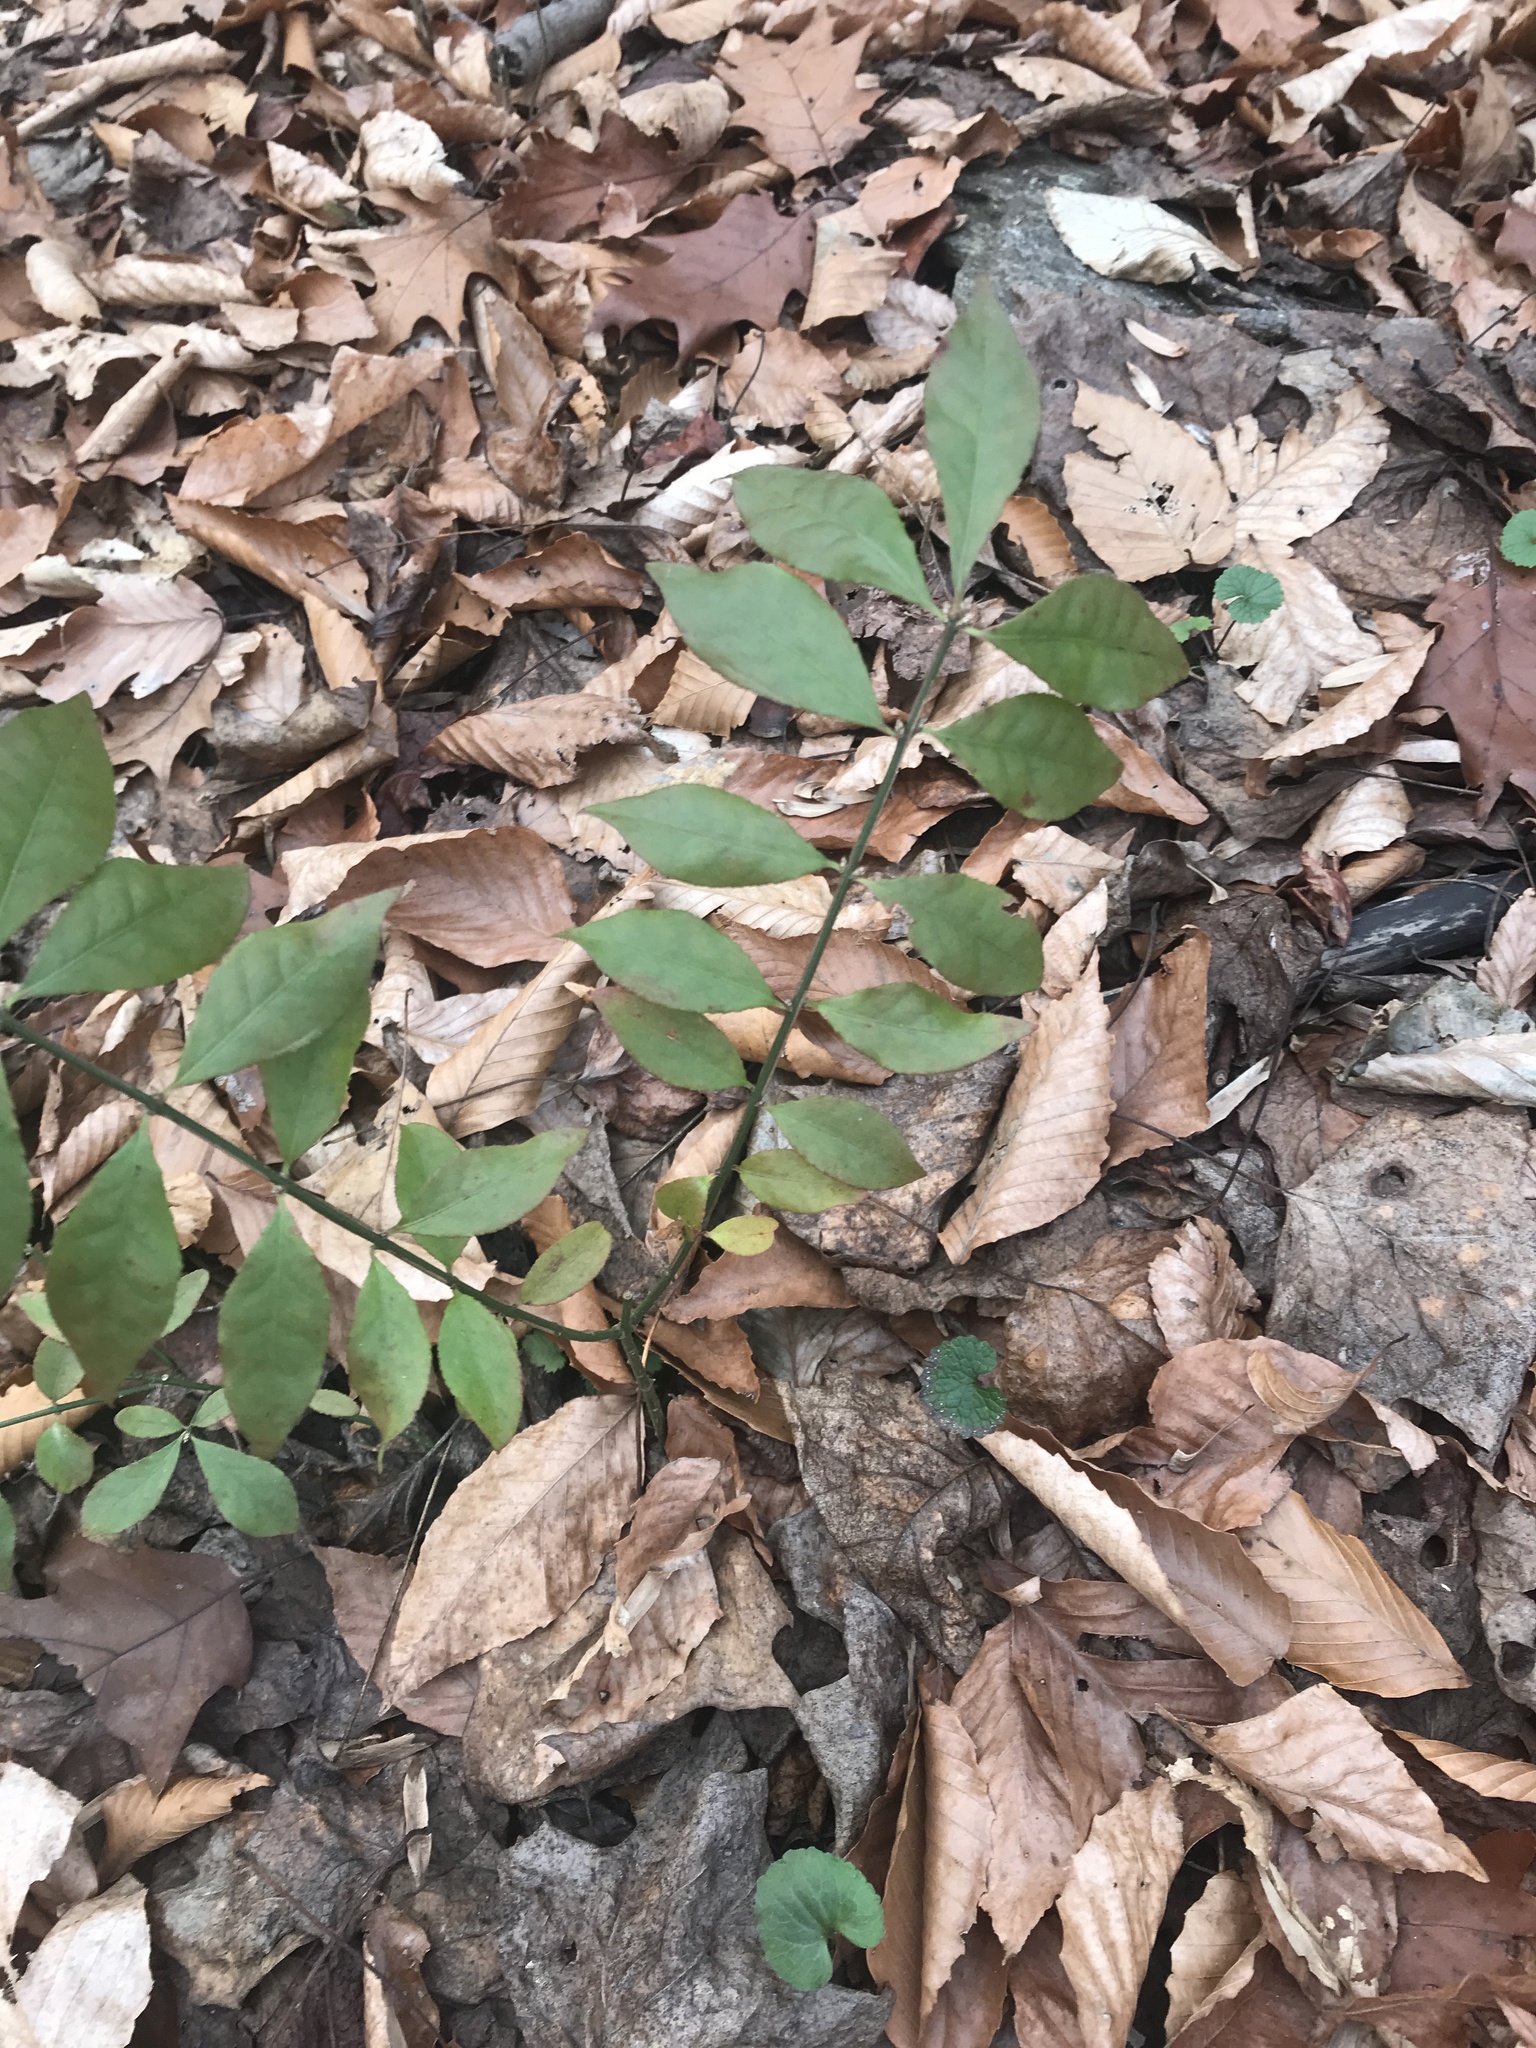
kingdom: Plantae
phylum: Tracheophyta
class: Magnoliopsida
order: Celastrales
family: Celastraceae
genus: Euonymus
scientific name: Euonymus alatus
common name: Winged euonymus
